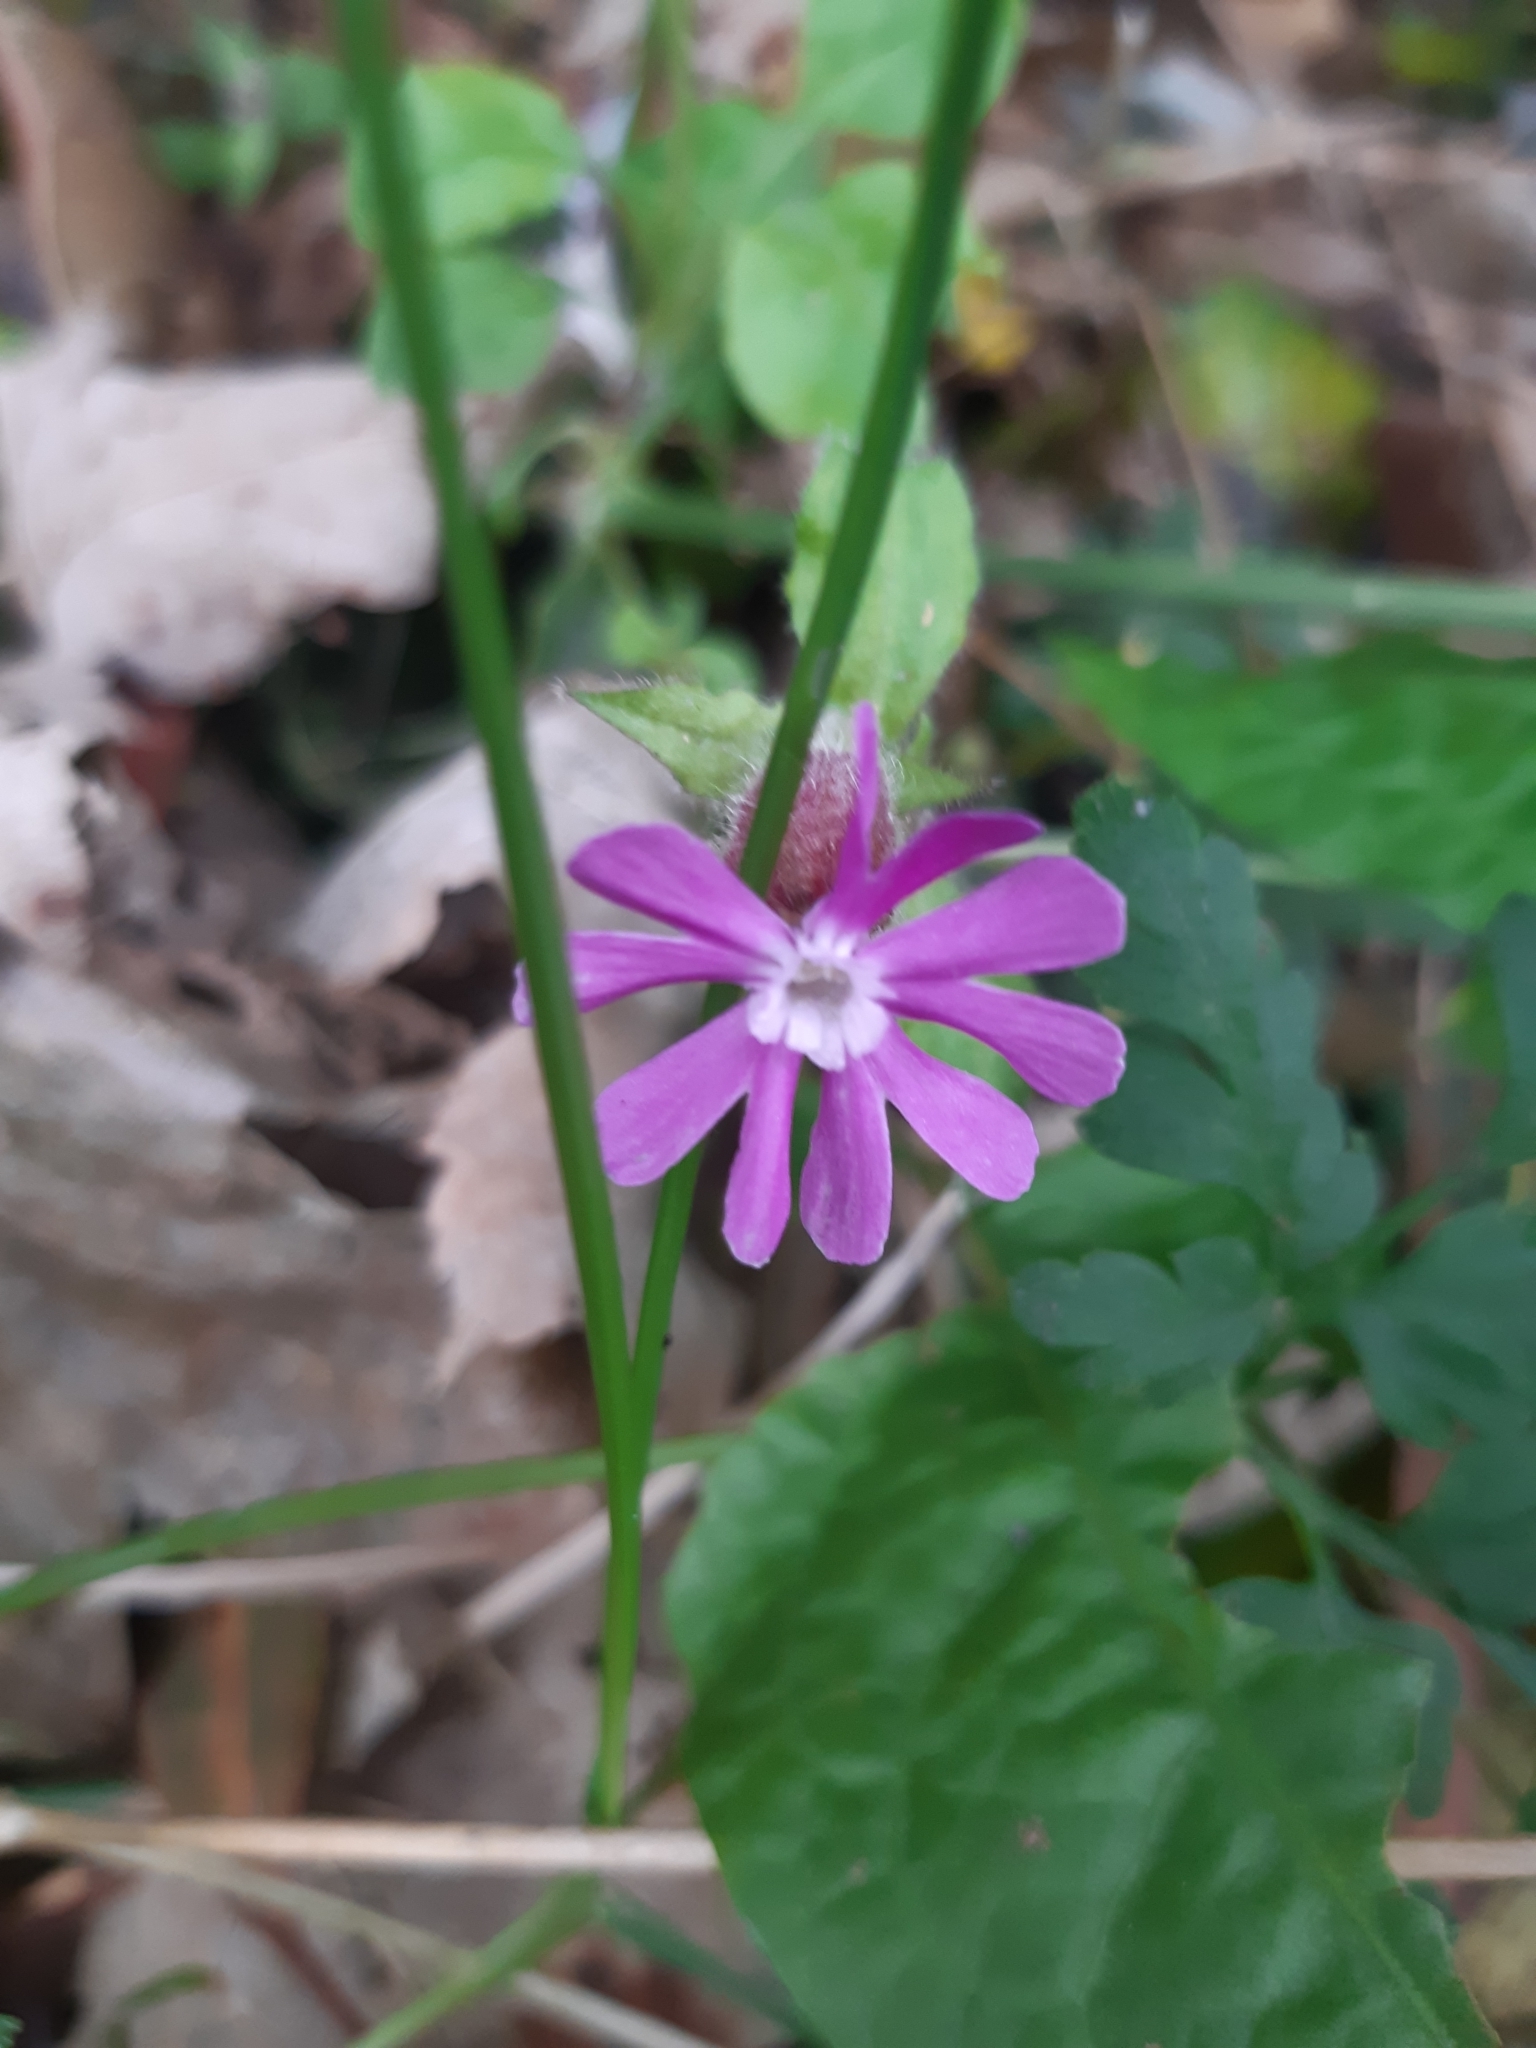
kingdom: Plantae
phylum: Tracheophyta
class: Magnoliopsida
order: Caryophyllales
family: Caryophyllaceae
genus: Silene
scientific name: Silene dioica
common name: Red campion
